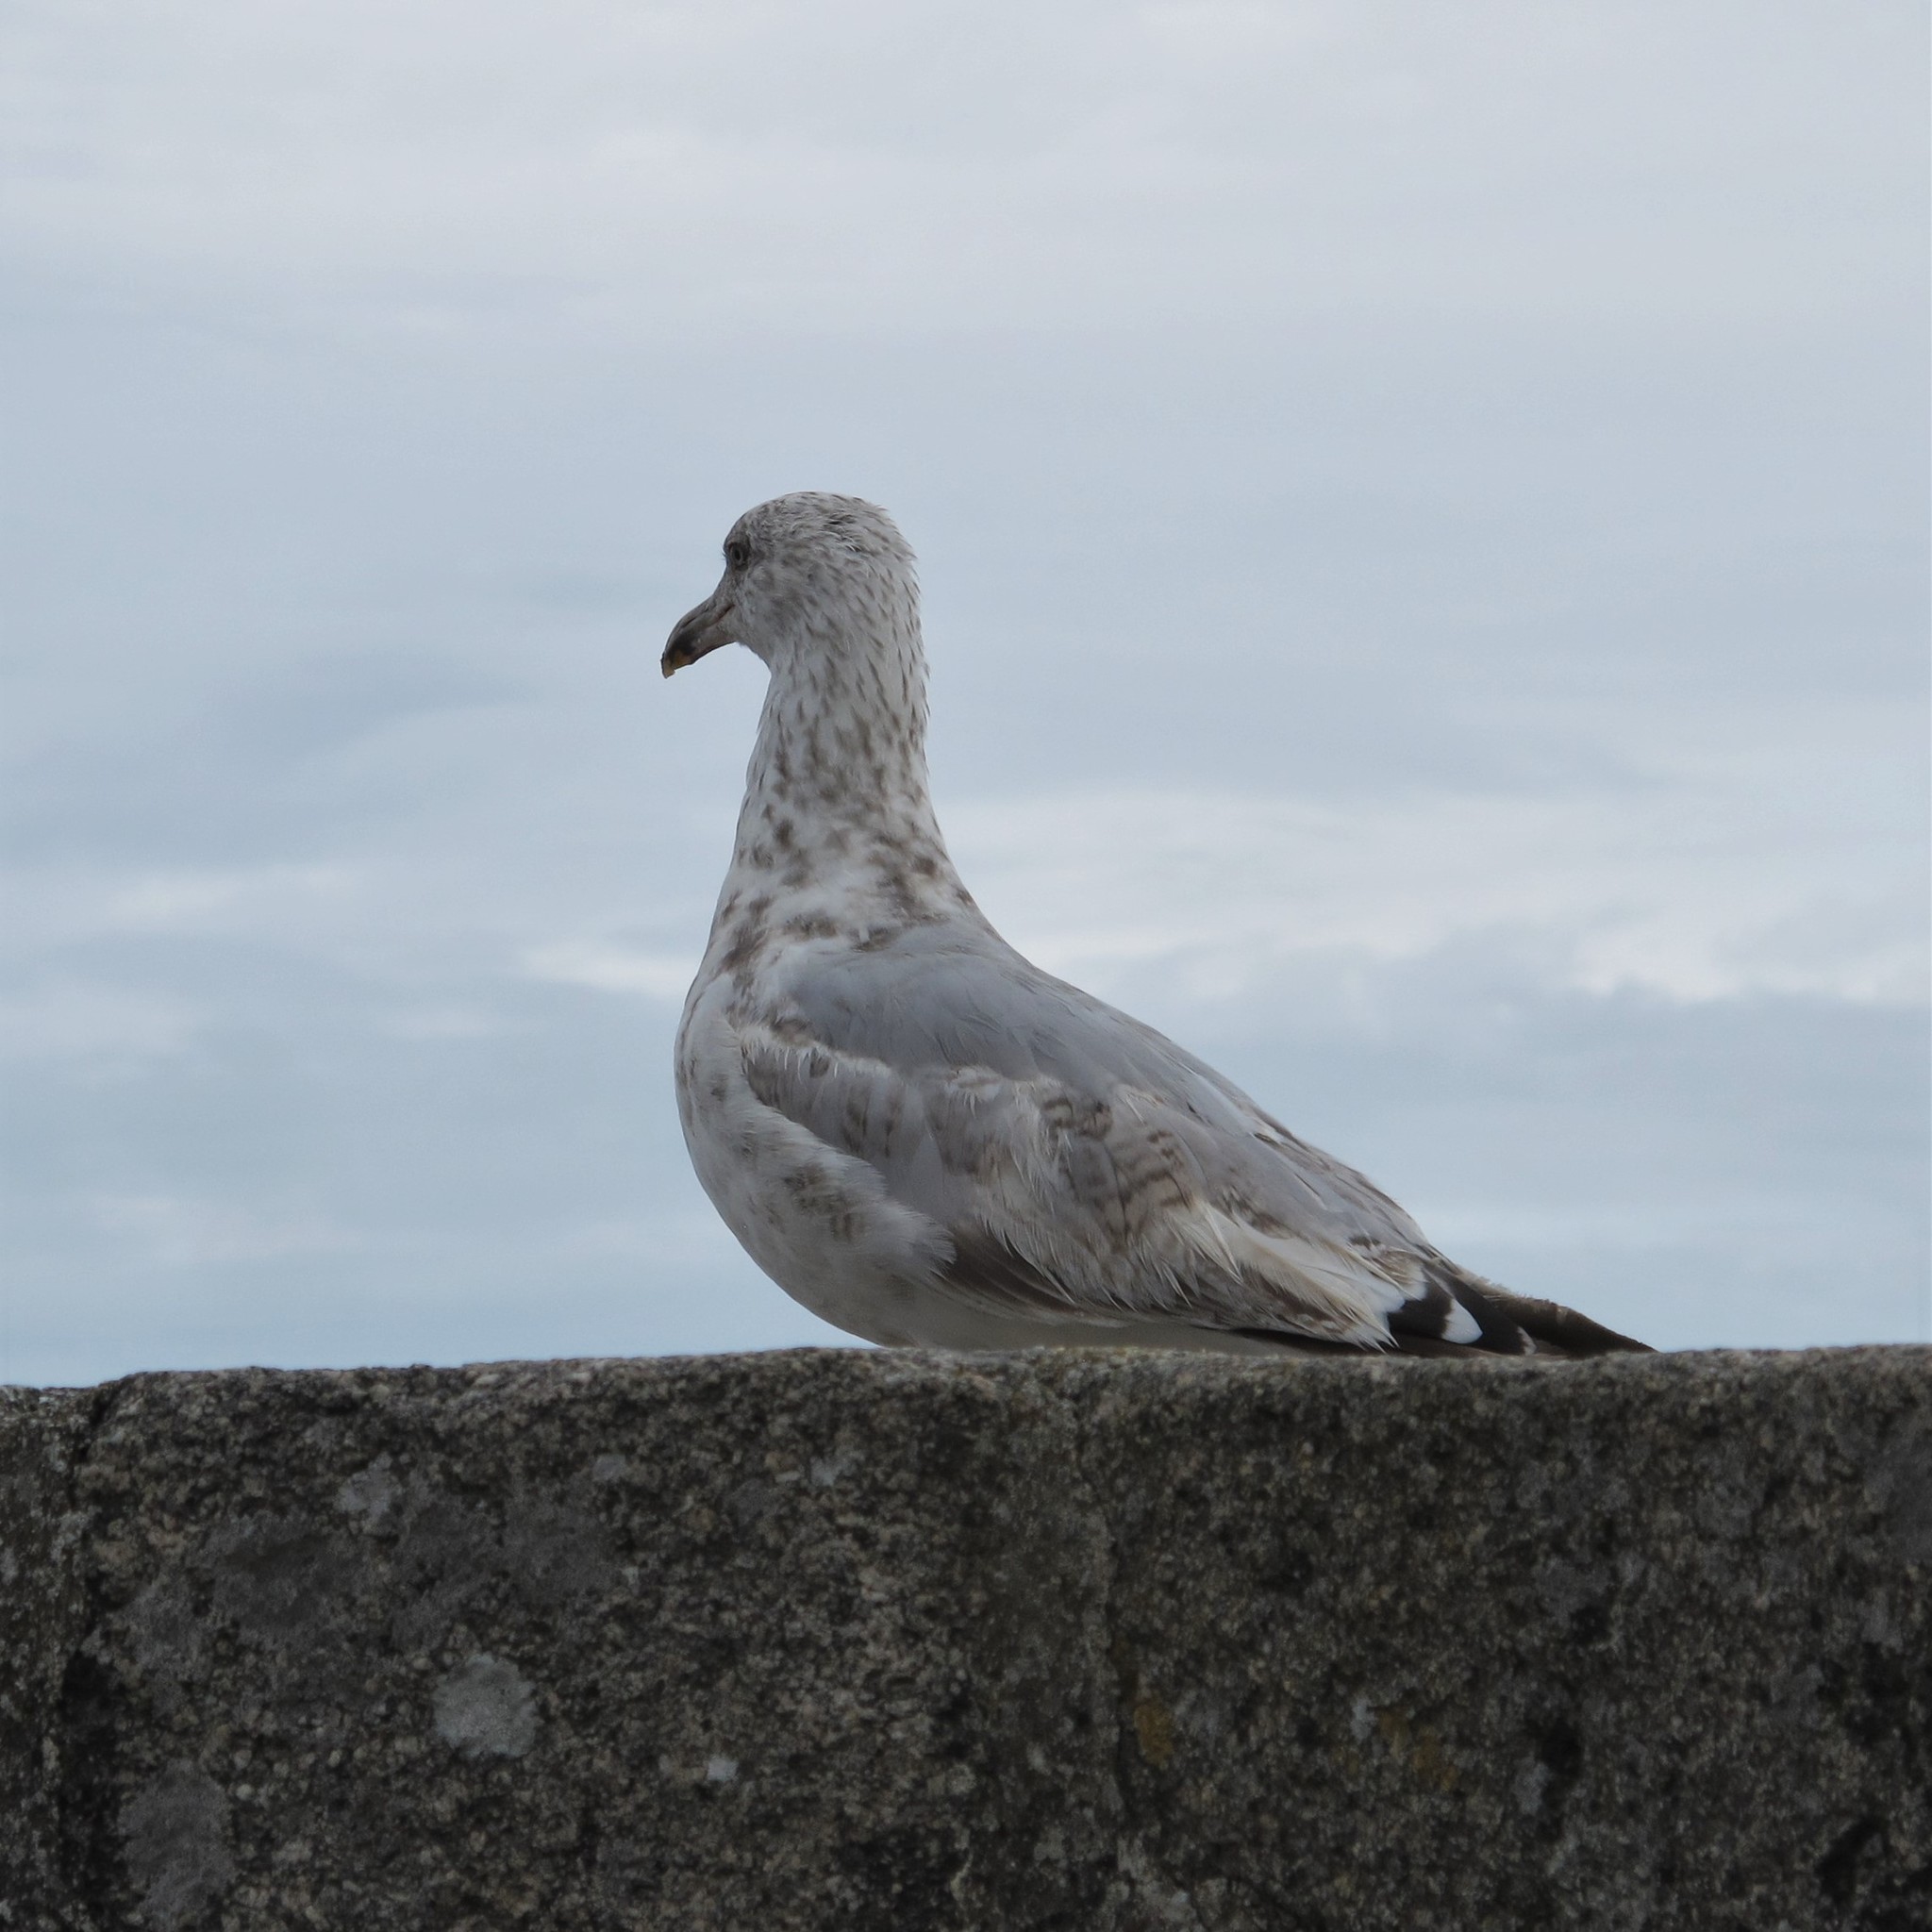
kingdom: Animalia
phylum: Chordata
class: Aves
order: Charadriiformes
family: Laridae
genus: Larus
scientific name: Larus argentatus
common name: Herring gull
